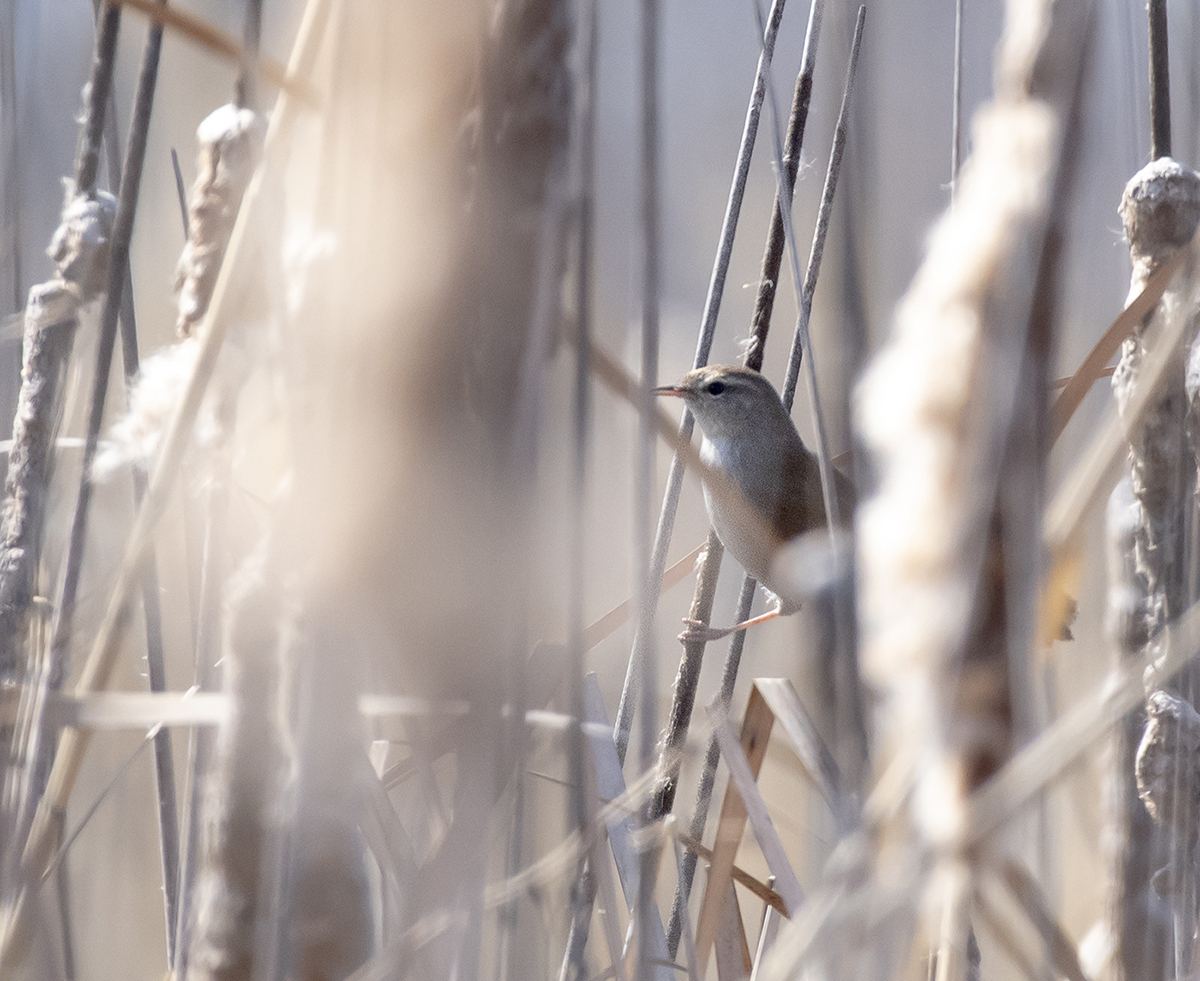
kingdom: Animalia
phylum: Chordata
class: Aves
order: Passeriformes
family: Cettiidae
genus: Cettia
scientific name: Cettia cetti
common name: Cetti's warbler
